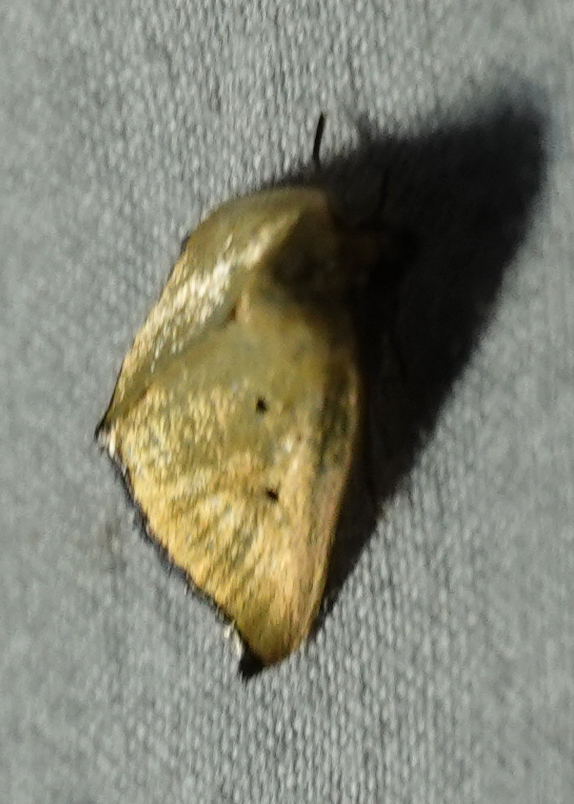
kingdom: Animalia
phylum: Arthropoda
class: Insecta
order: Lepidoptera
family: Noctuidae
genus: Marimatha
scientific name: Marimatha nigrofimbria
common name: Black-bordered lemon moth
